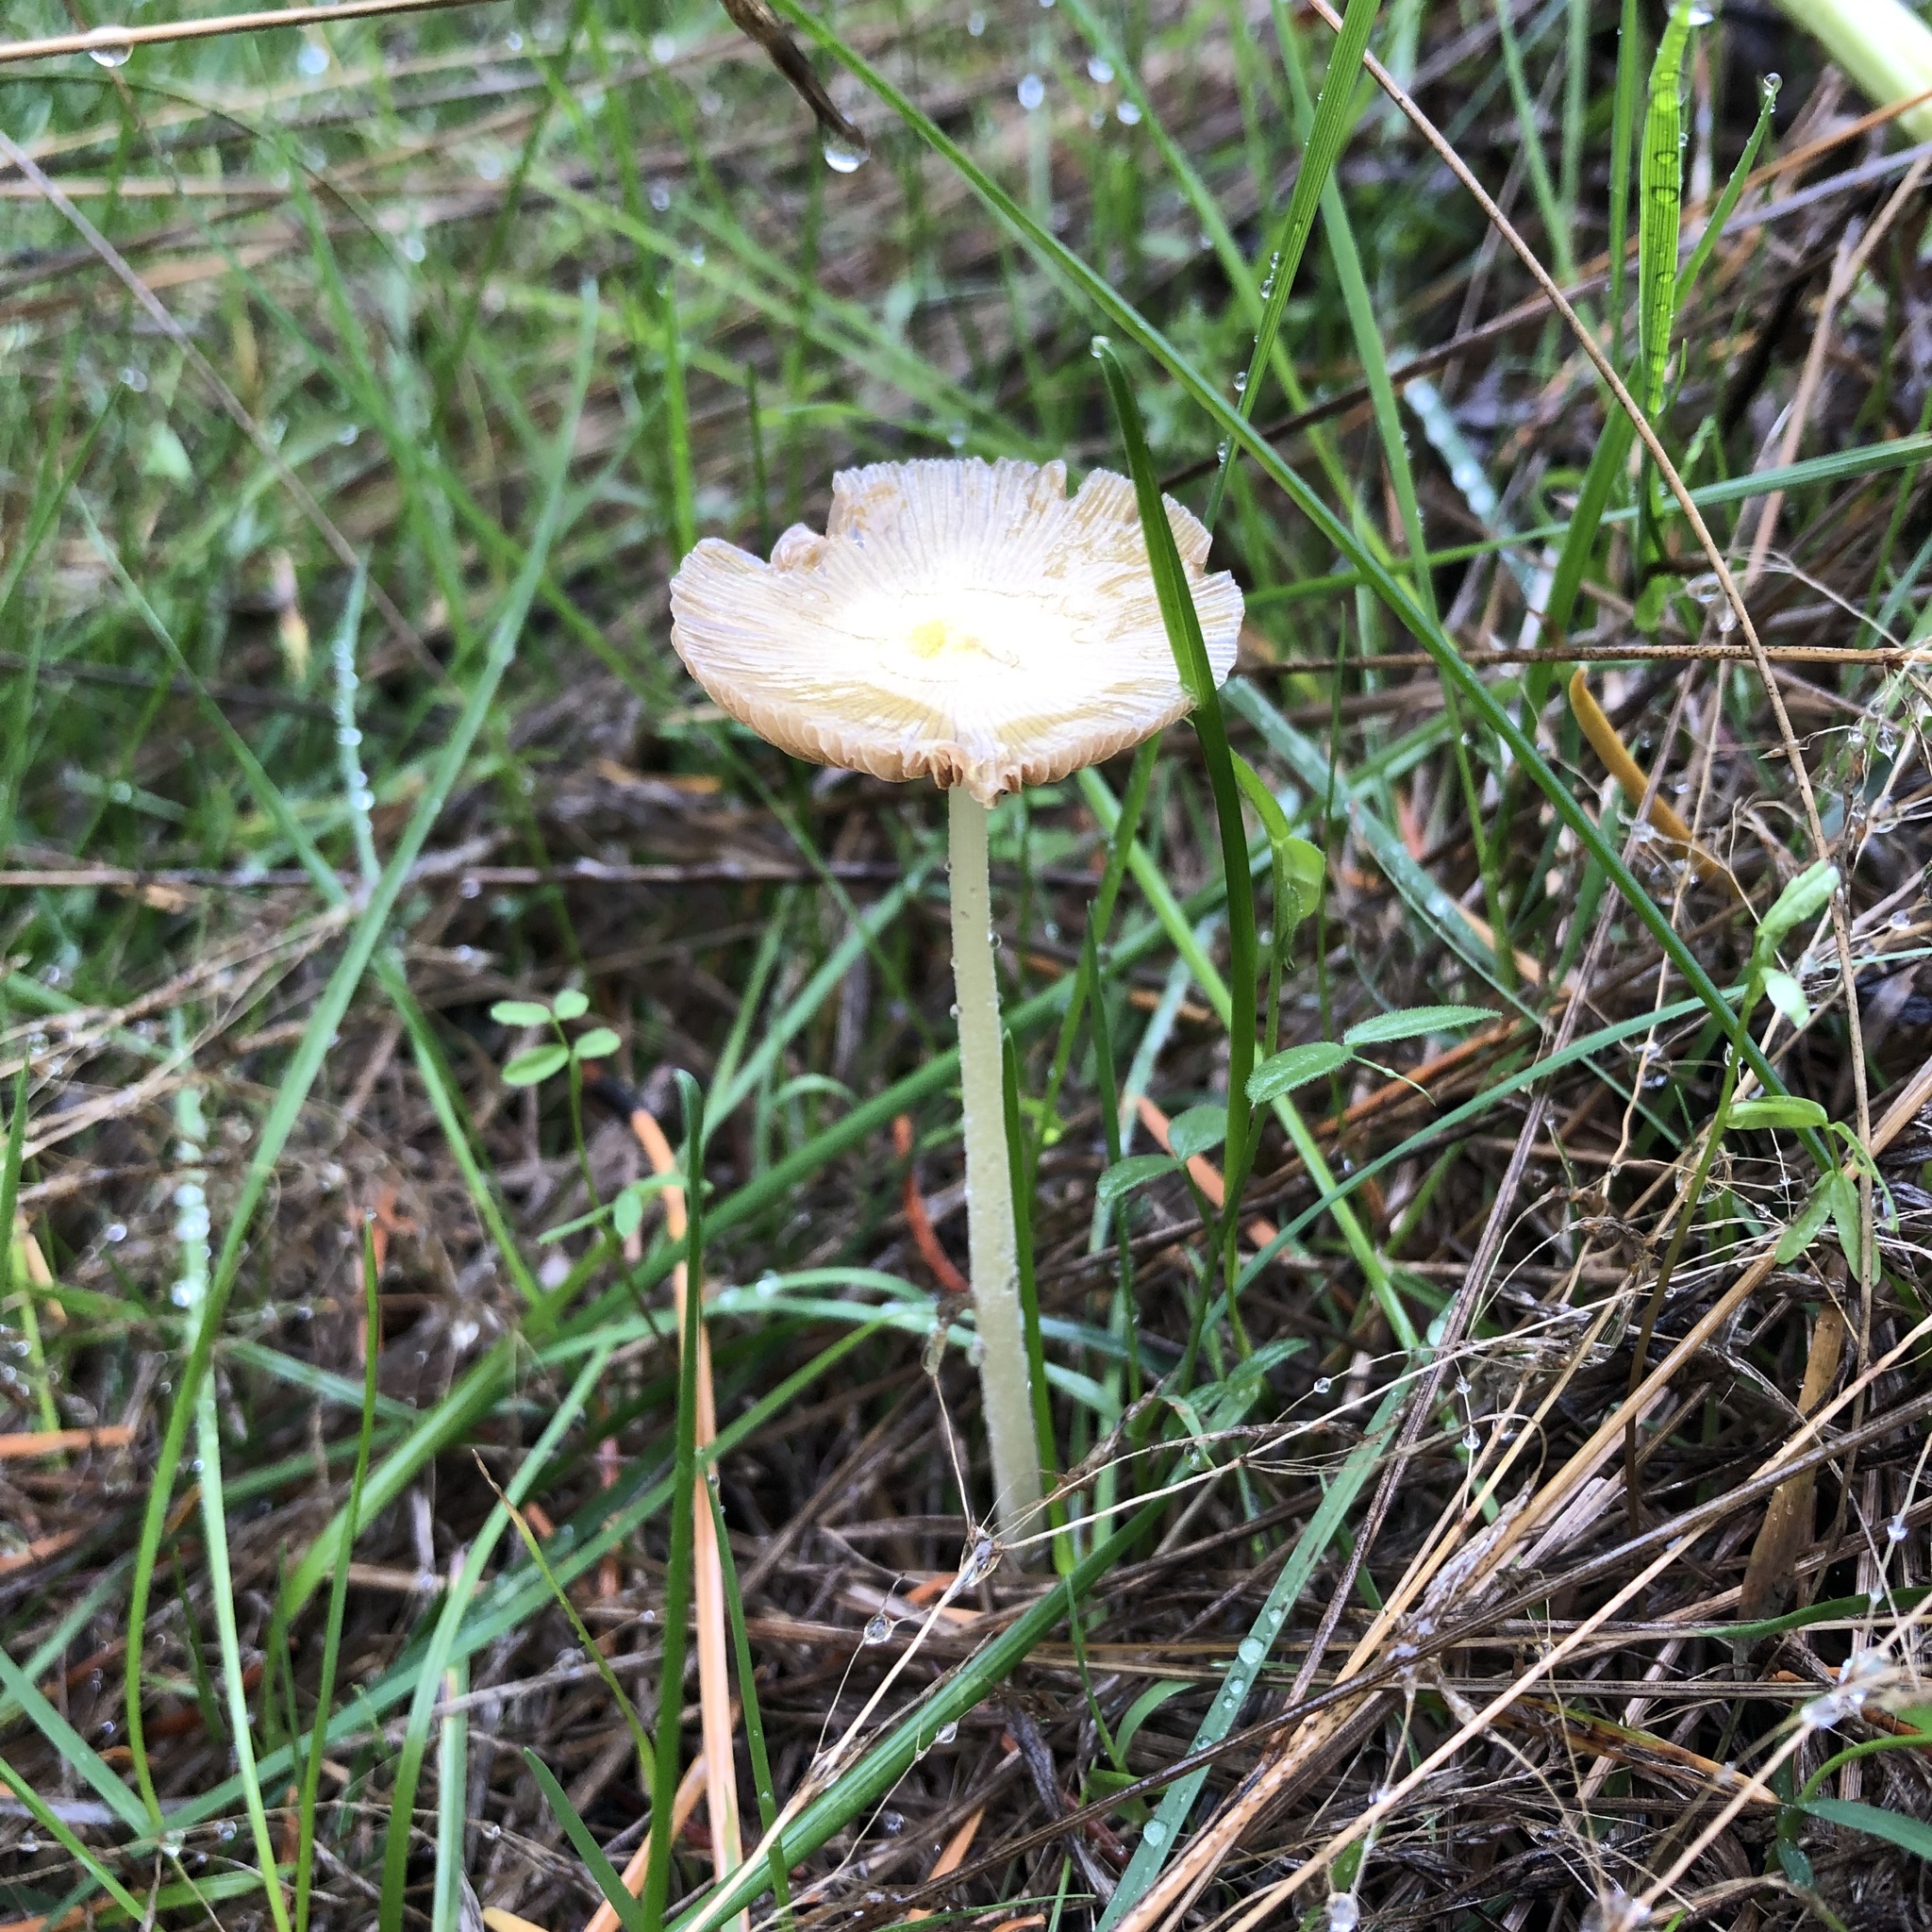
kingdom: Fungi
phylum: Basidiomycota
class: Agaricomycetes
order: Agaricales
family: Bolbitiaceae
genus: Bolbitius
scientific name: Bolbitius titubans
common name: Yellow fieldcap
